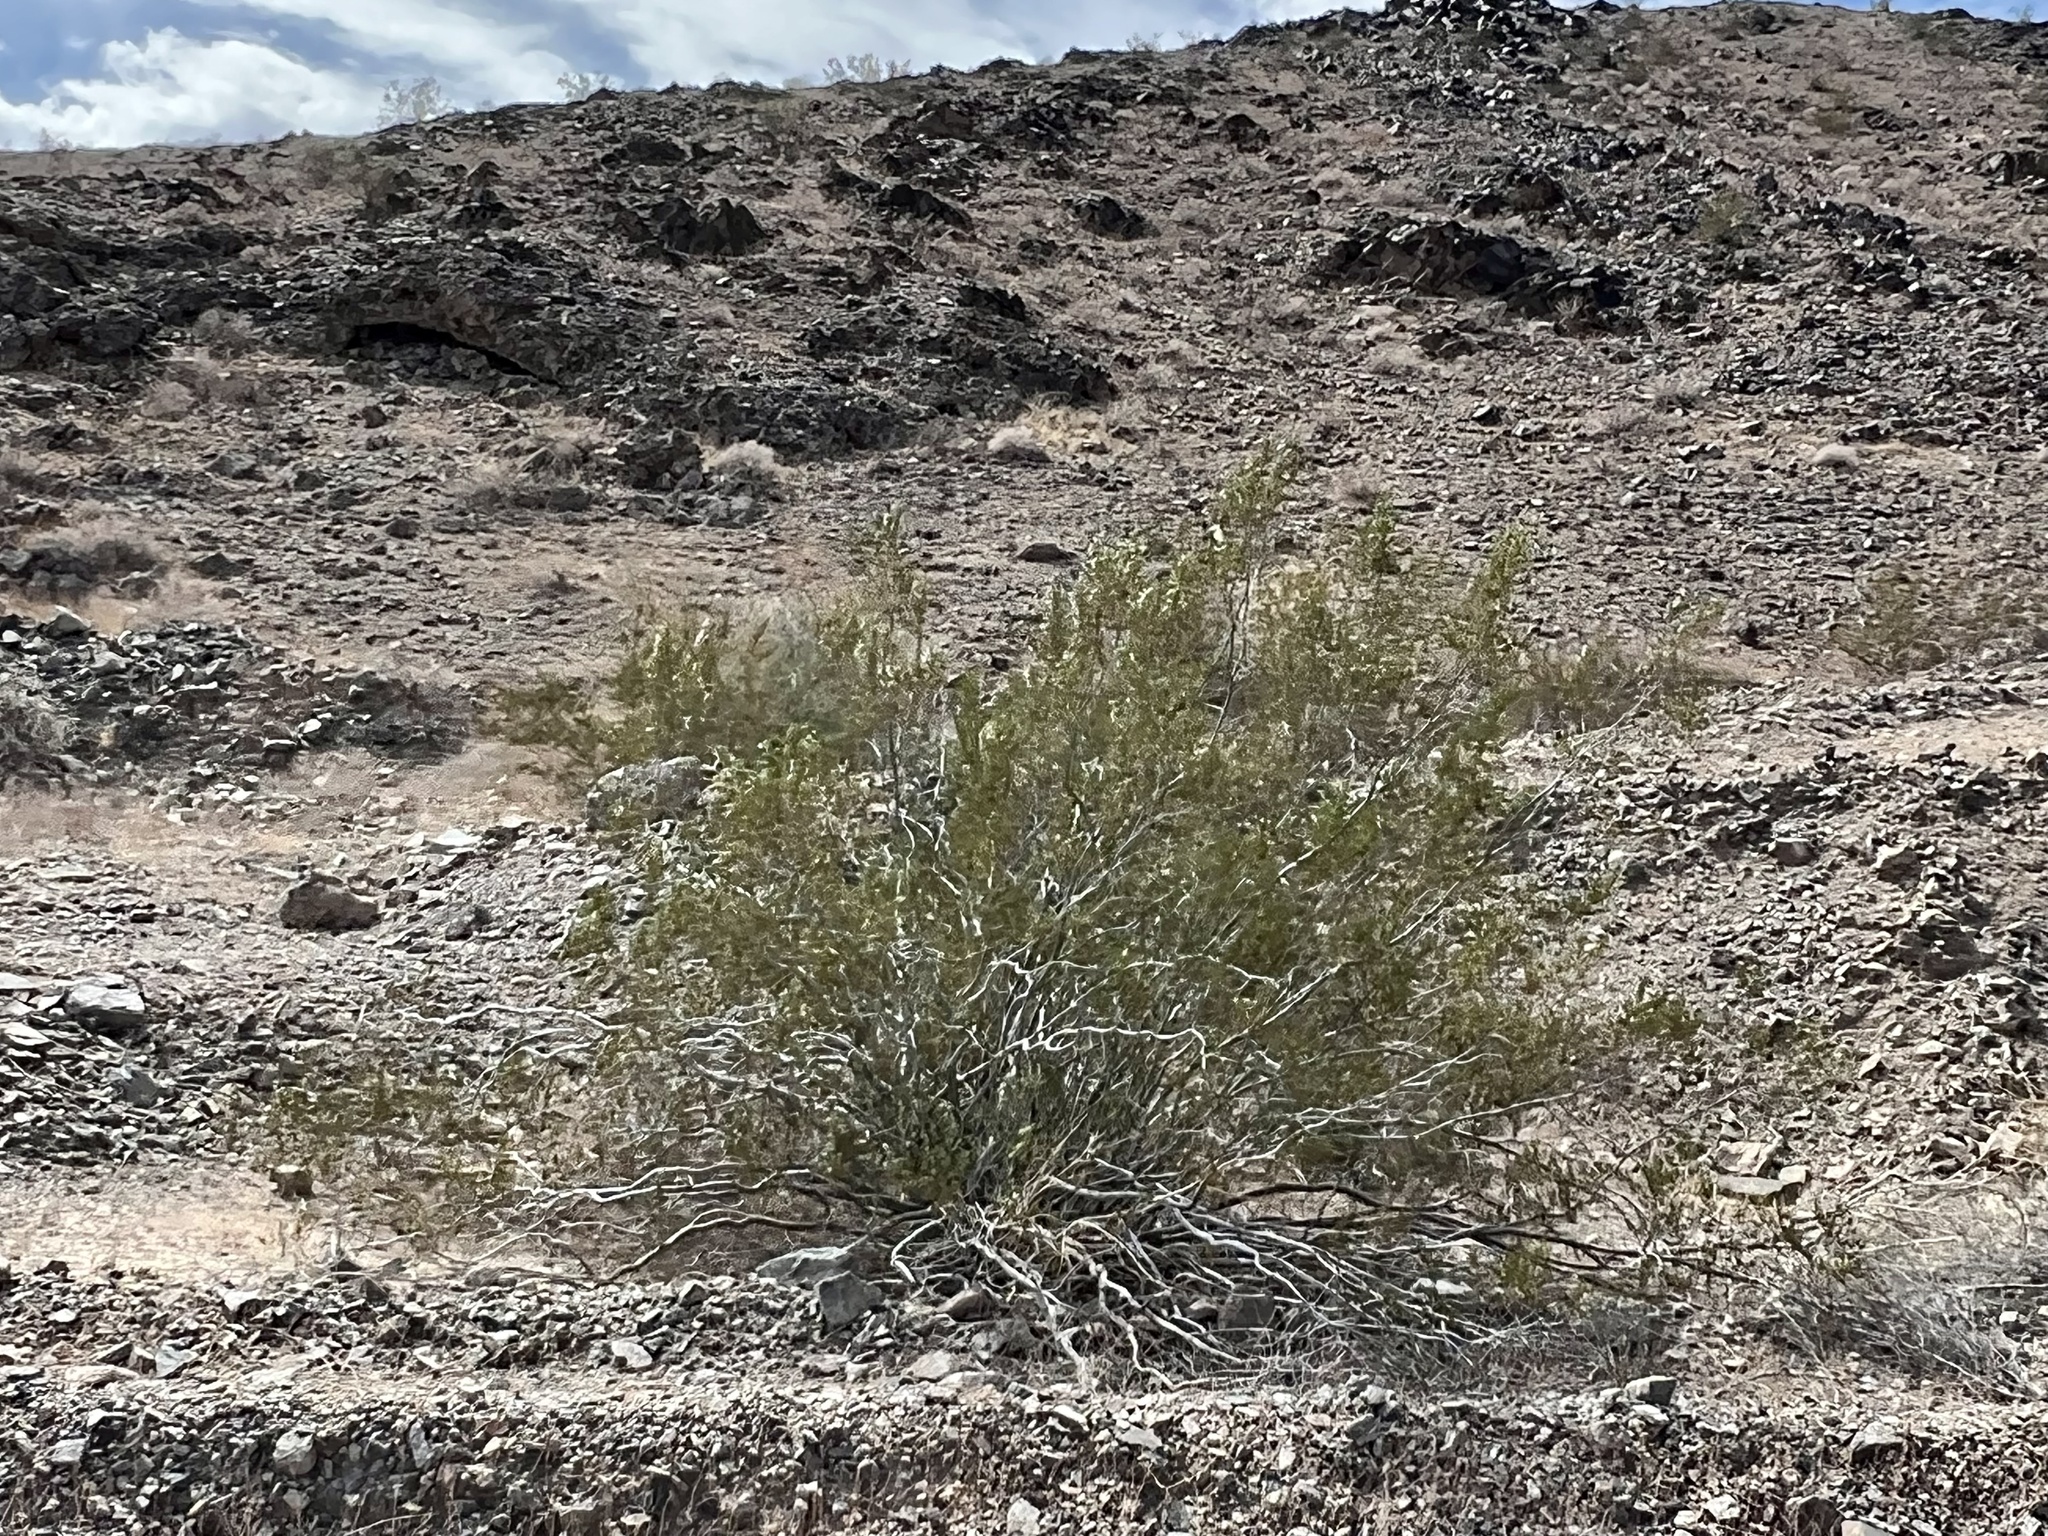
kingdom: Plantae
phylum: Tracheophyta
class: Magnoliopsida
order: Zygophyllales
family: Zygophyllaceae
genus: Larrea
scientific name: Larrea tridentata
